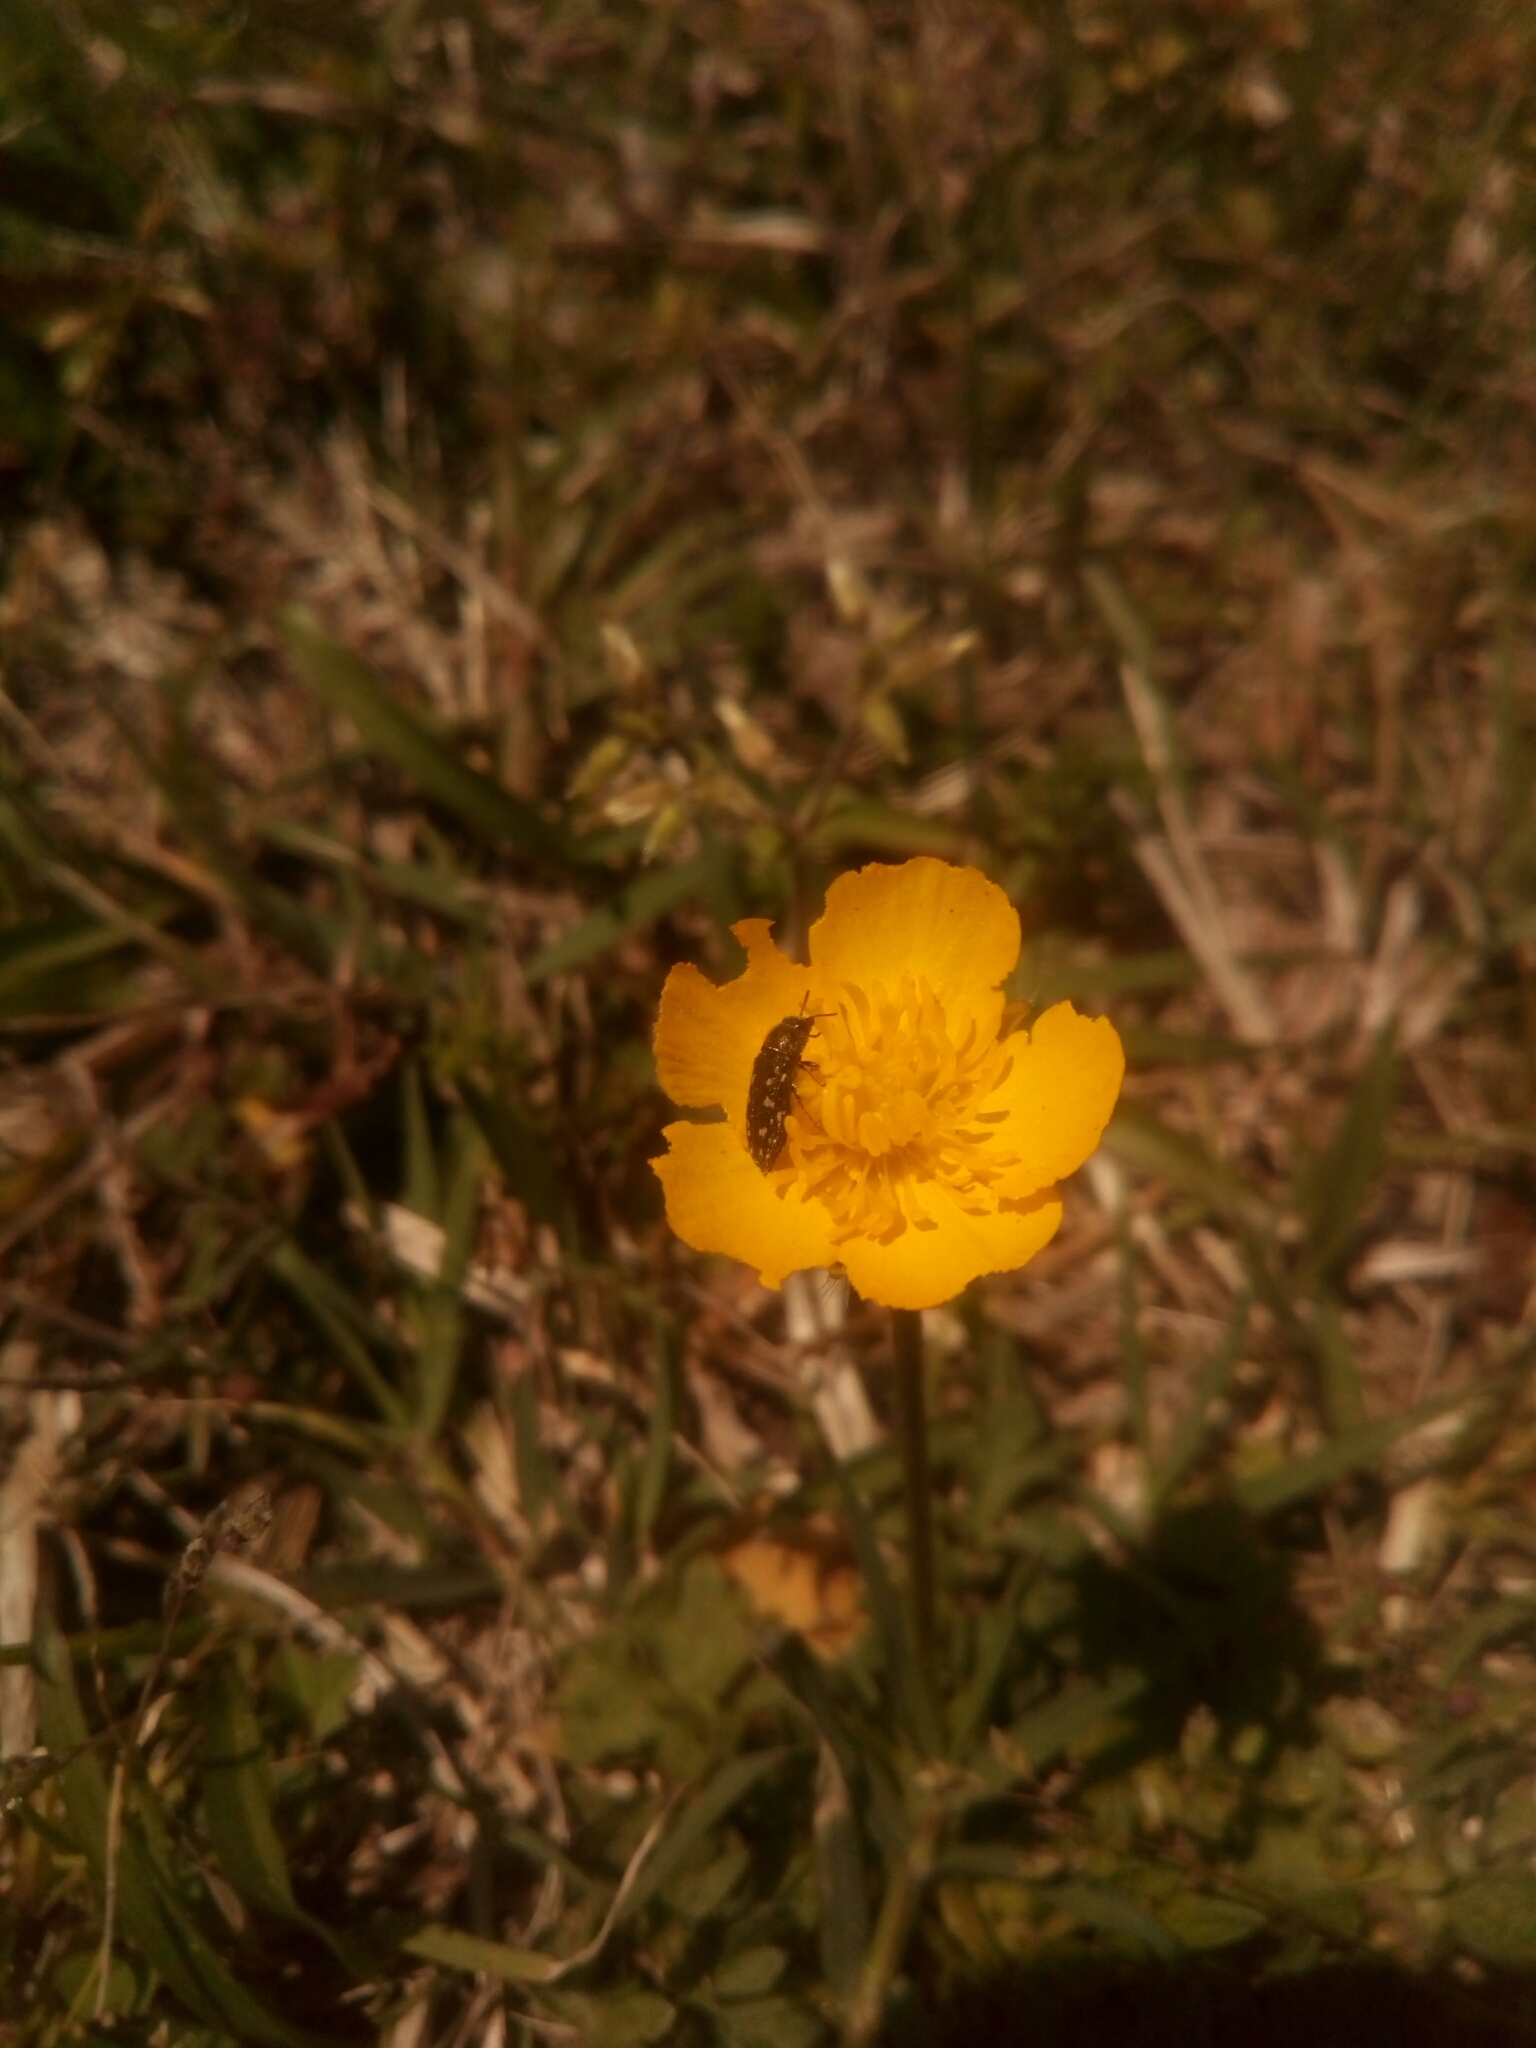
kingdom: Animalia
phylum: Arthropoda
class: Insecta
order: Coleoptera
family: Buprestidae
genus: Acmaeodera
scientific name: Acmaeodera tubulus
